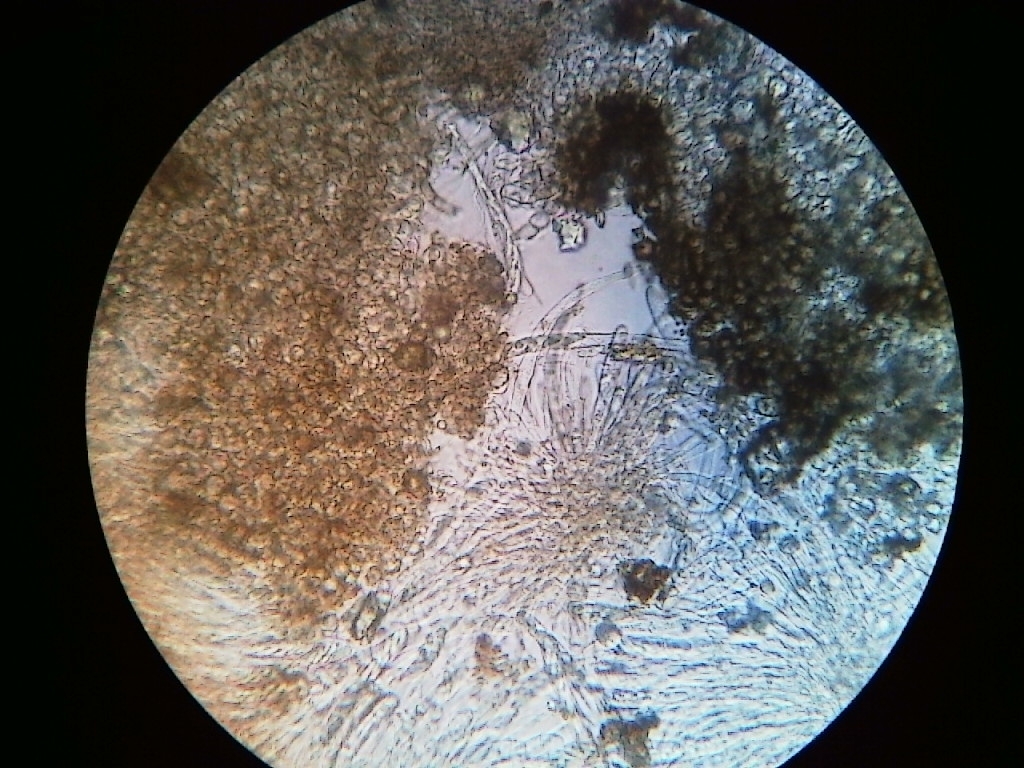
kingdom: Fungi
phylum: Ascomycota
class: Leotiomycetes
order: Helotiales
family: Sclerotiniaceae
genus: Sclerencoelia
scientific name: Sclerencoelia pruinosa
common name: Sooty-bark canker
